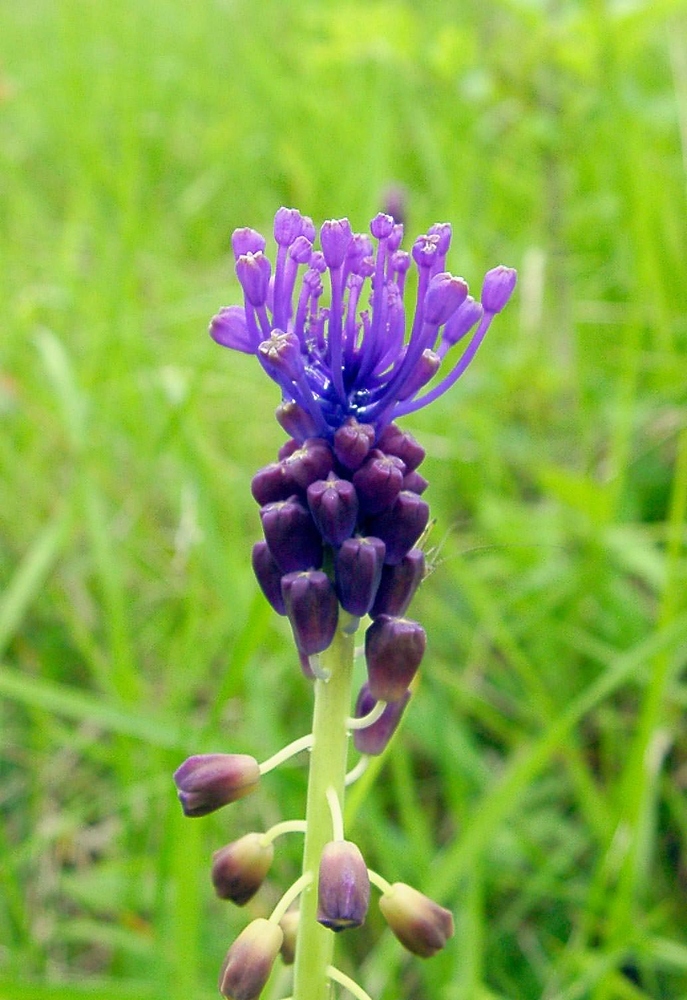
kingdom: Plantae
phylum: Tracheophyta
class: Liliopsida
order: Asparagales
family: Asparagaceae
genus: Muscari
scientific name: Muscari comosum
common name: Tassel hyacinth
